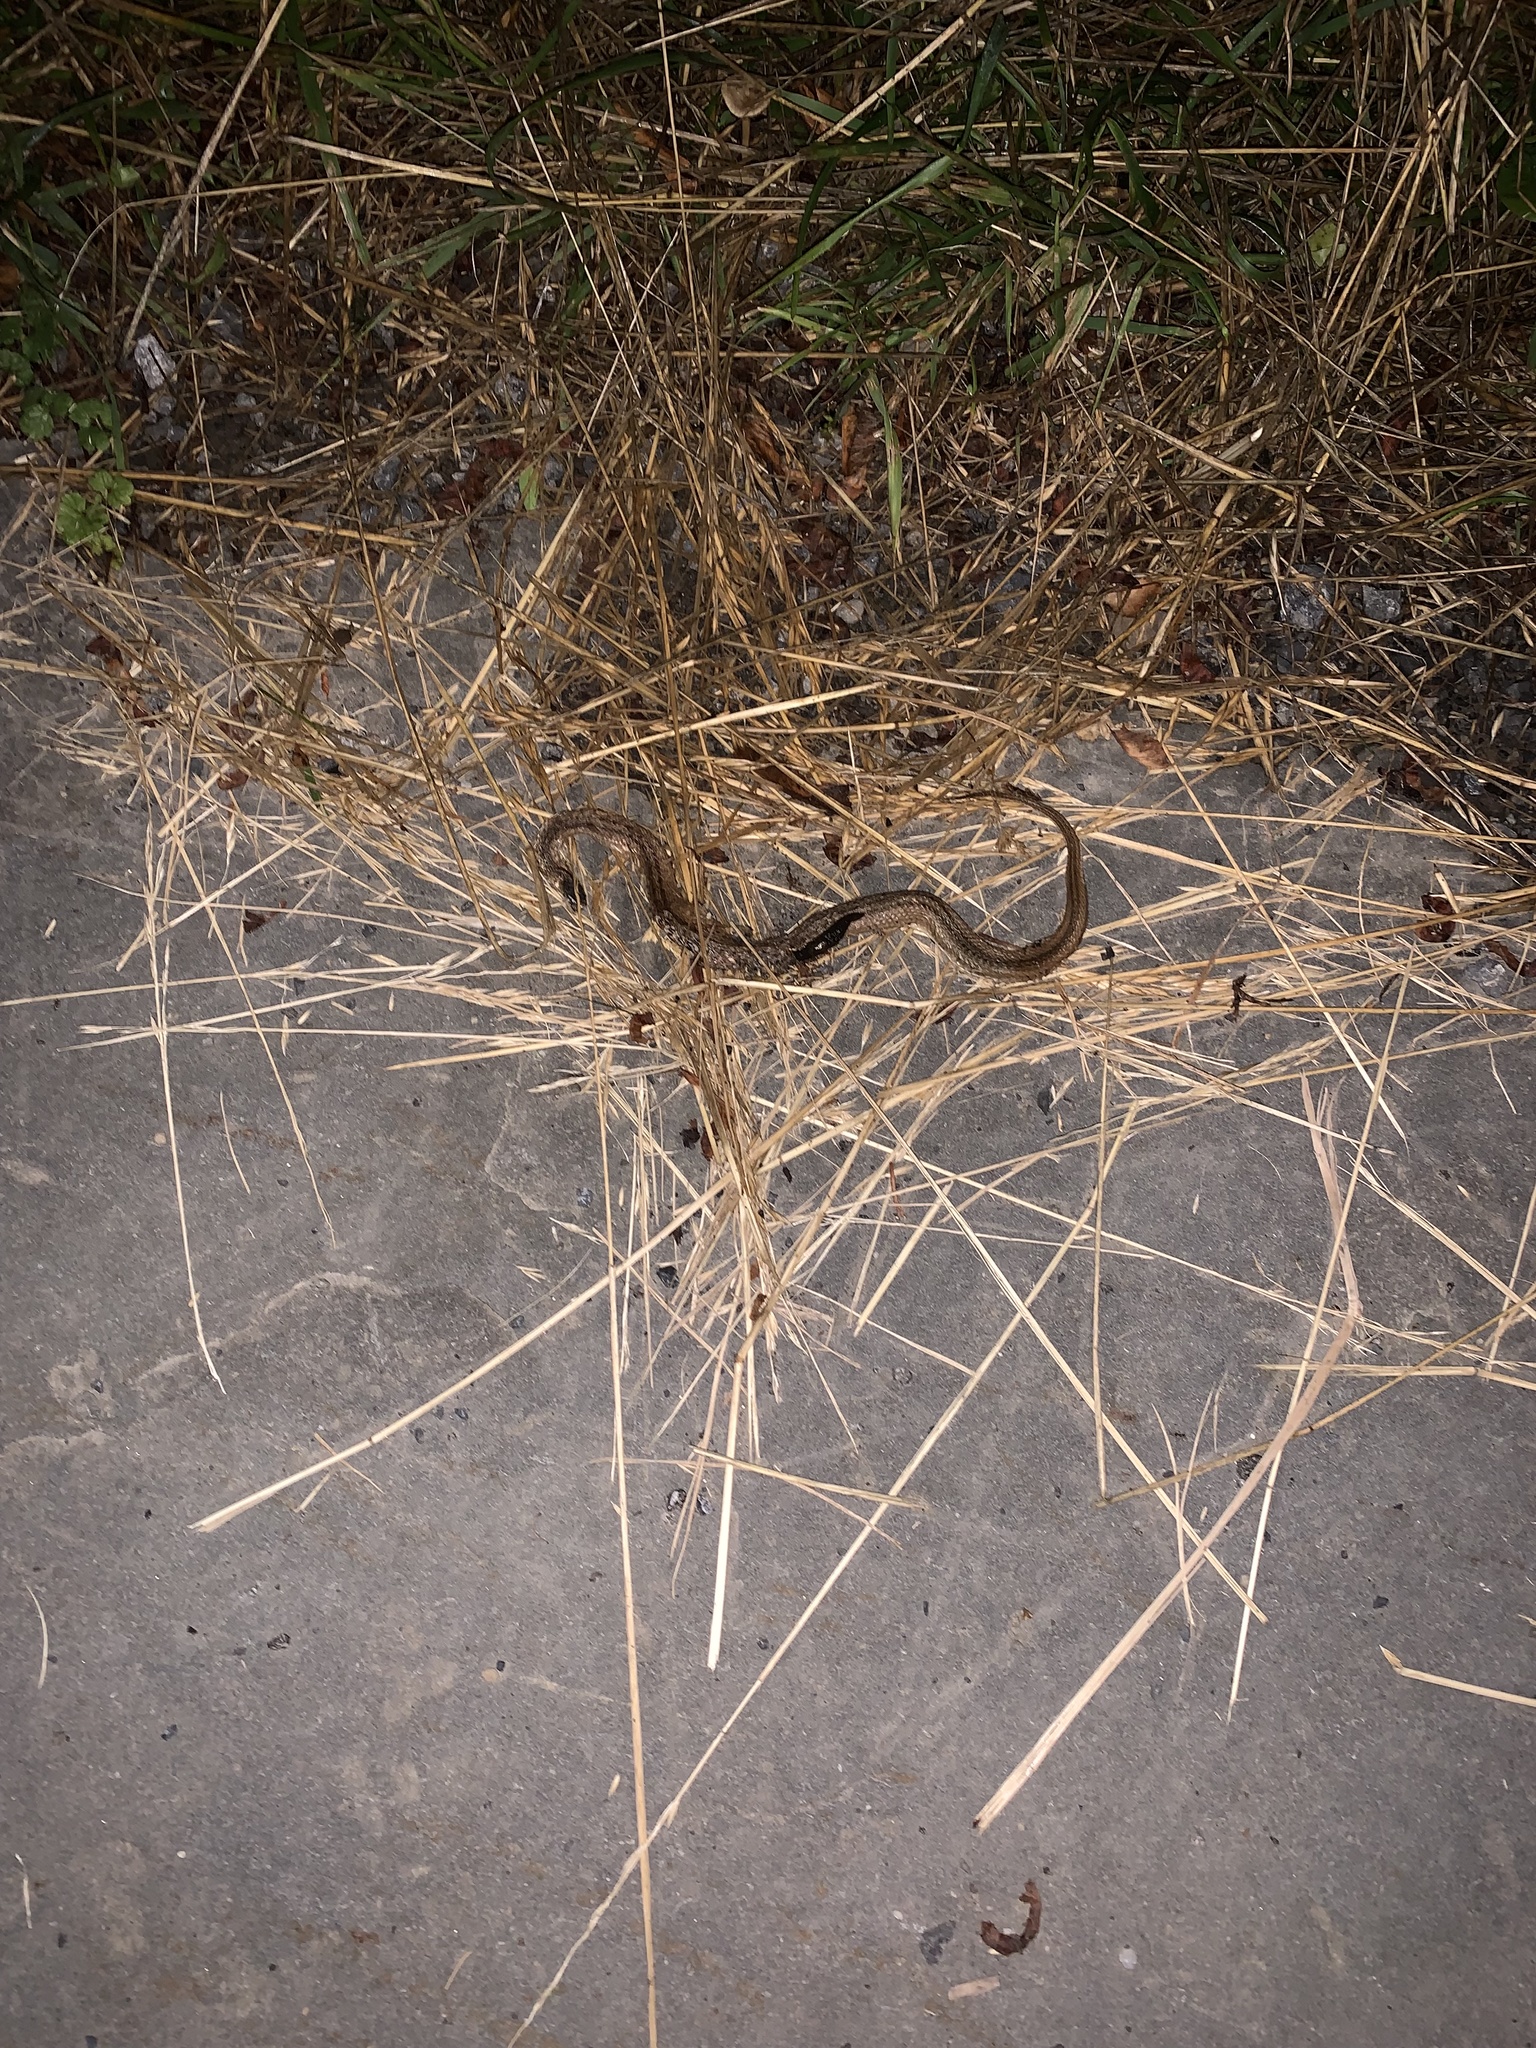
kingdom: Animalia
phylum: Chordata
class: Squamata
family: Colubridae
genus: Storeria
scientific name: Storeria dekayi
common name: (dekay’s) brown snake
